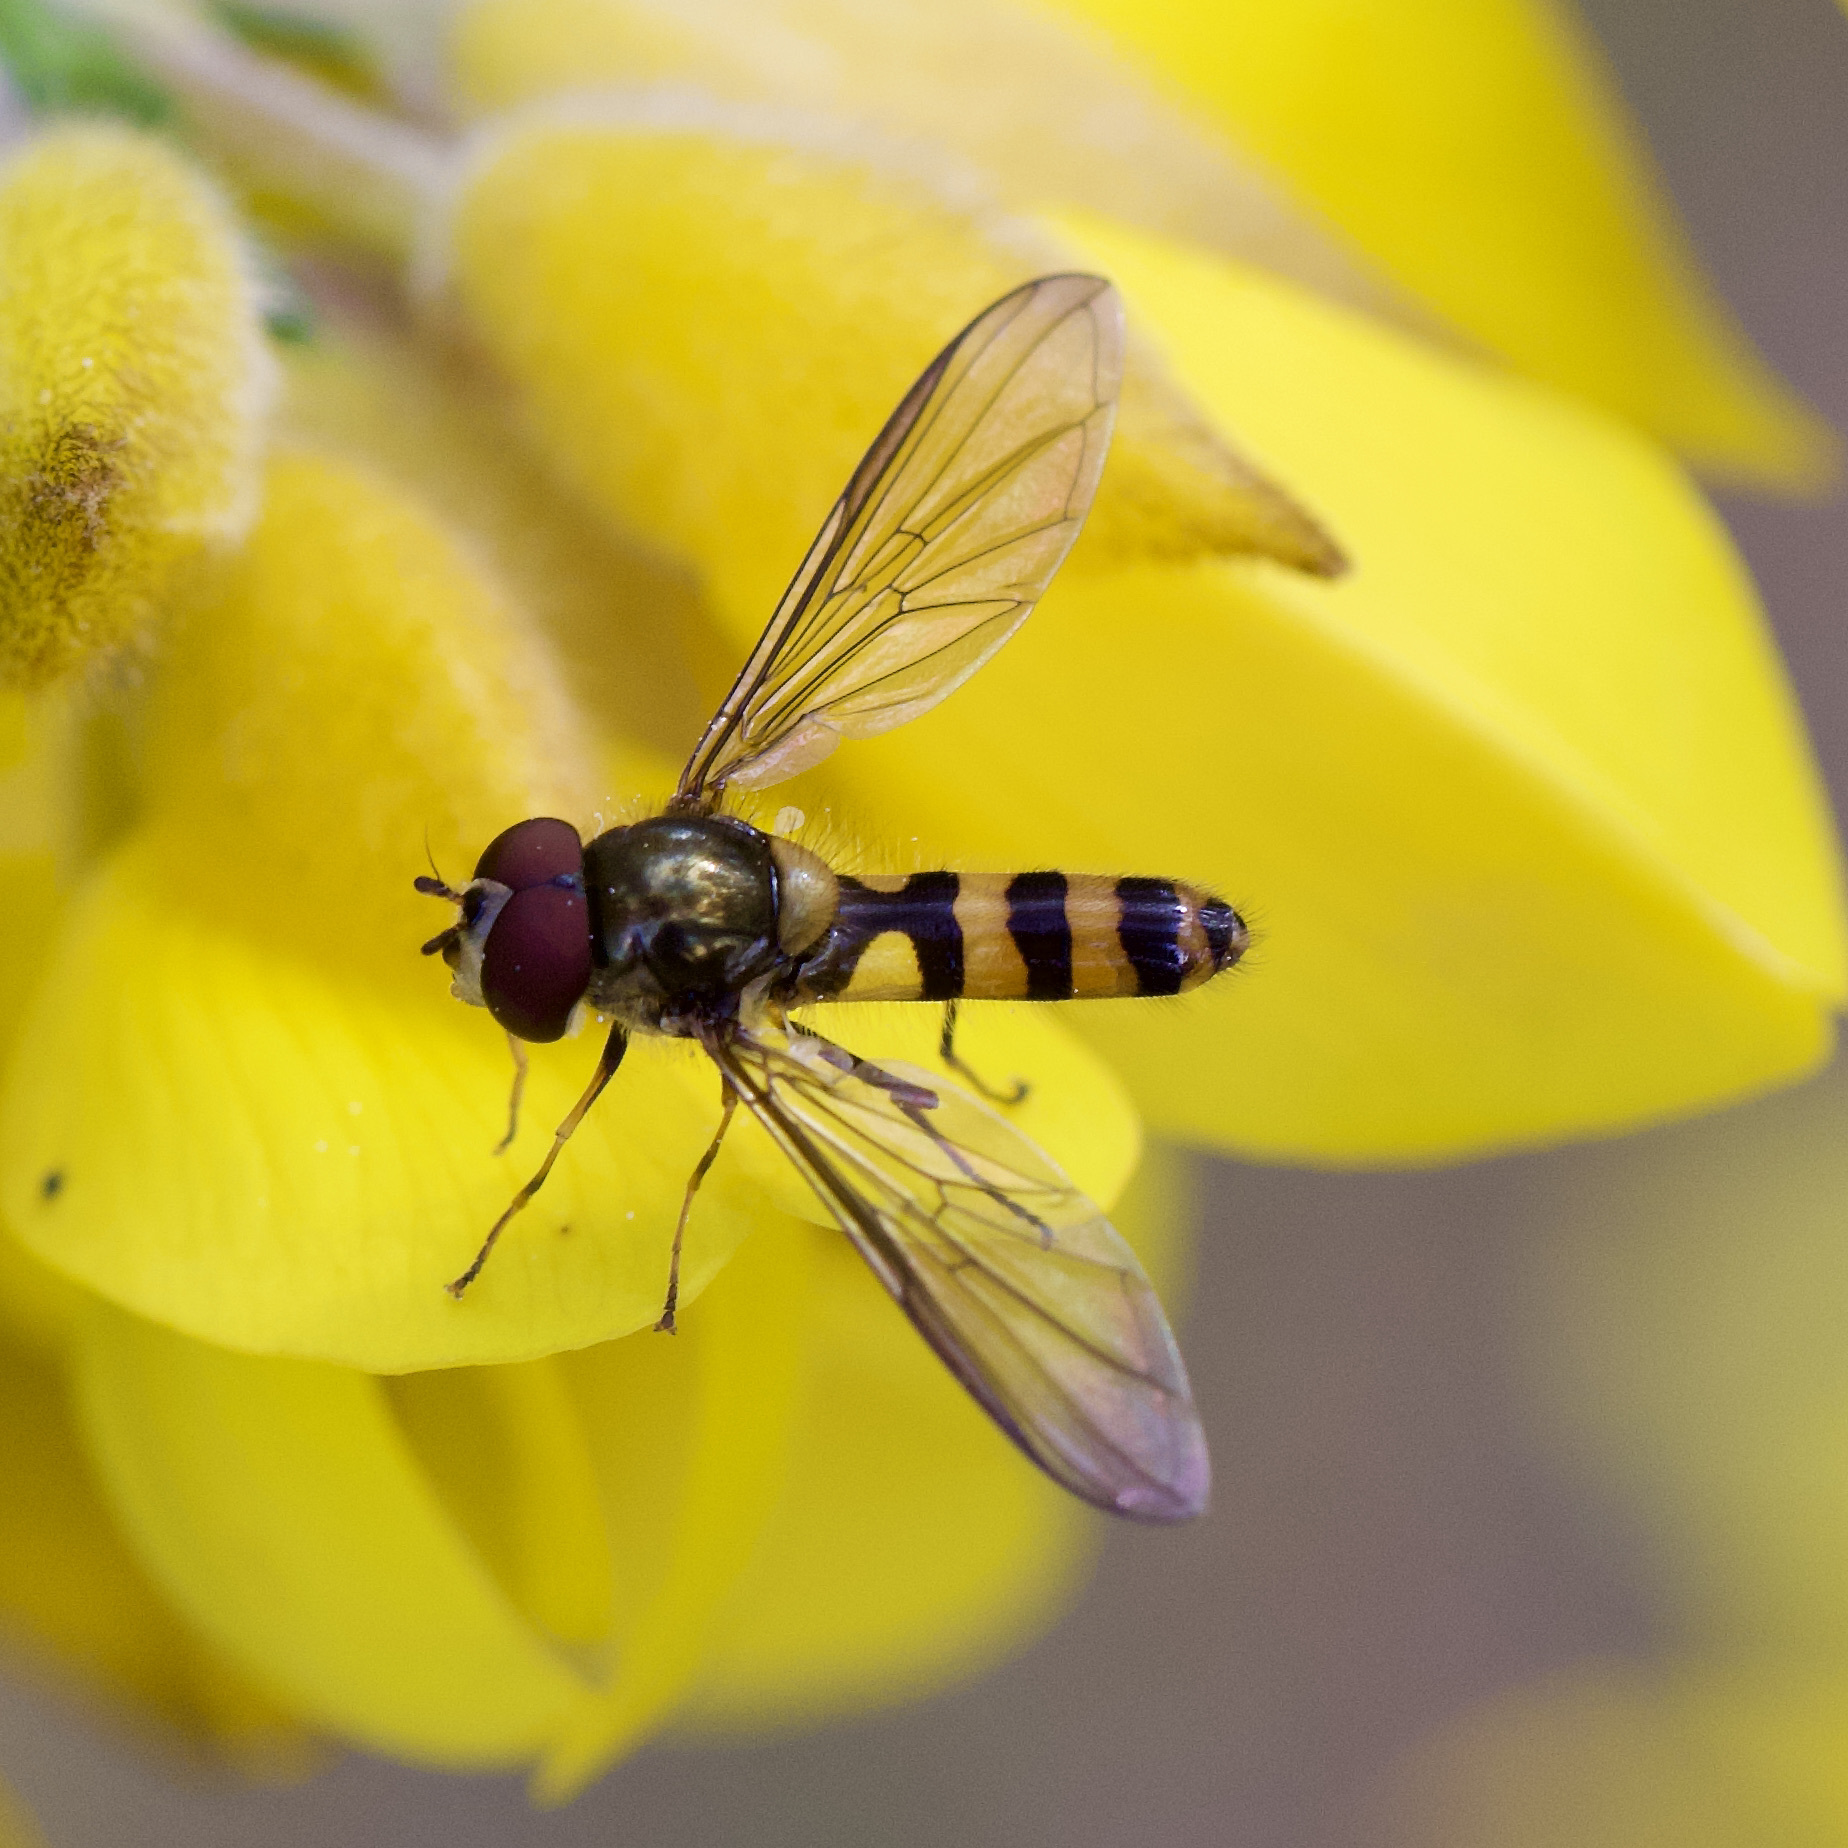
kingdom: Animalia
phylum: Arthropoda
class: Insecta
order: Diptera
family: Syrphidae
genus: Meliscaeva
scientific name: Meliscaeva cinctella
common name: American thintail fly
